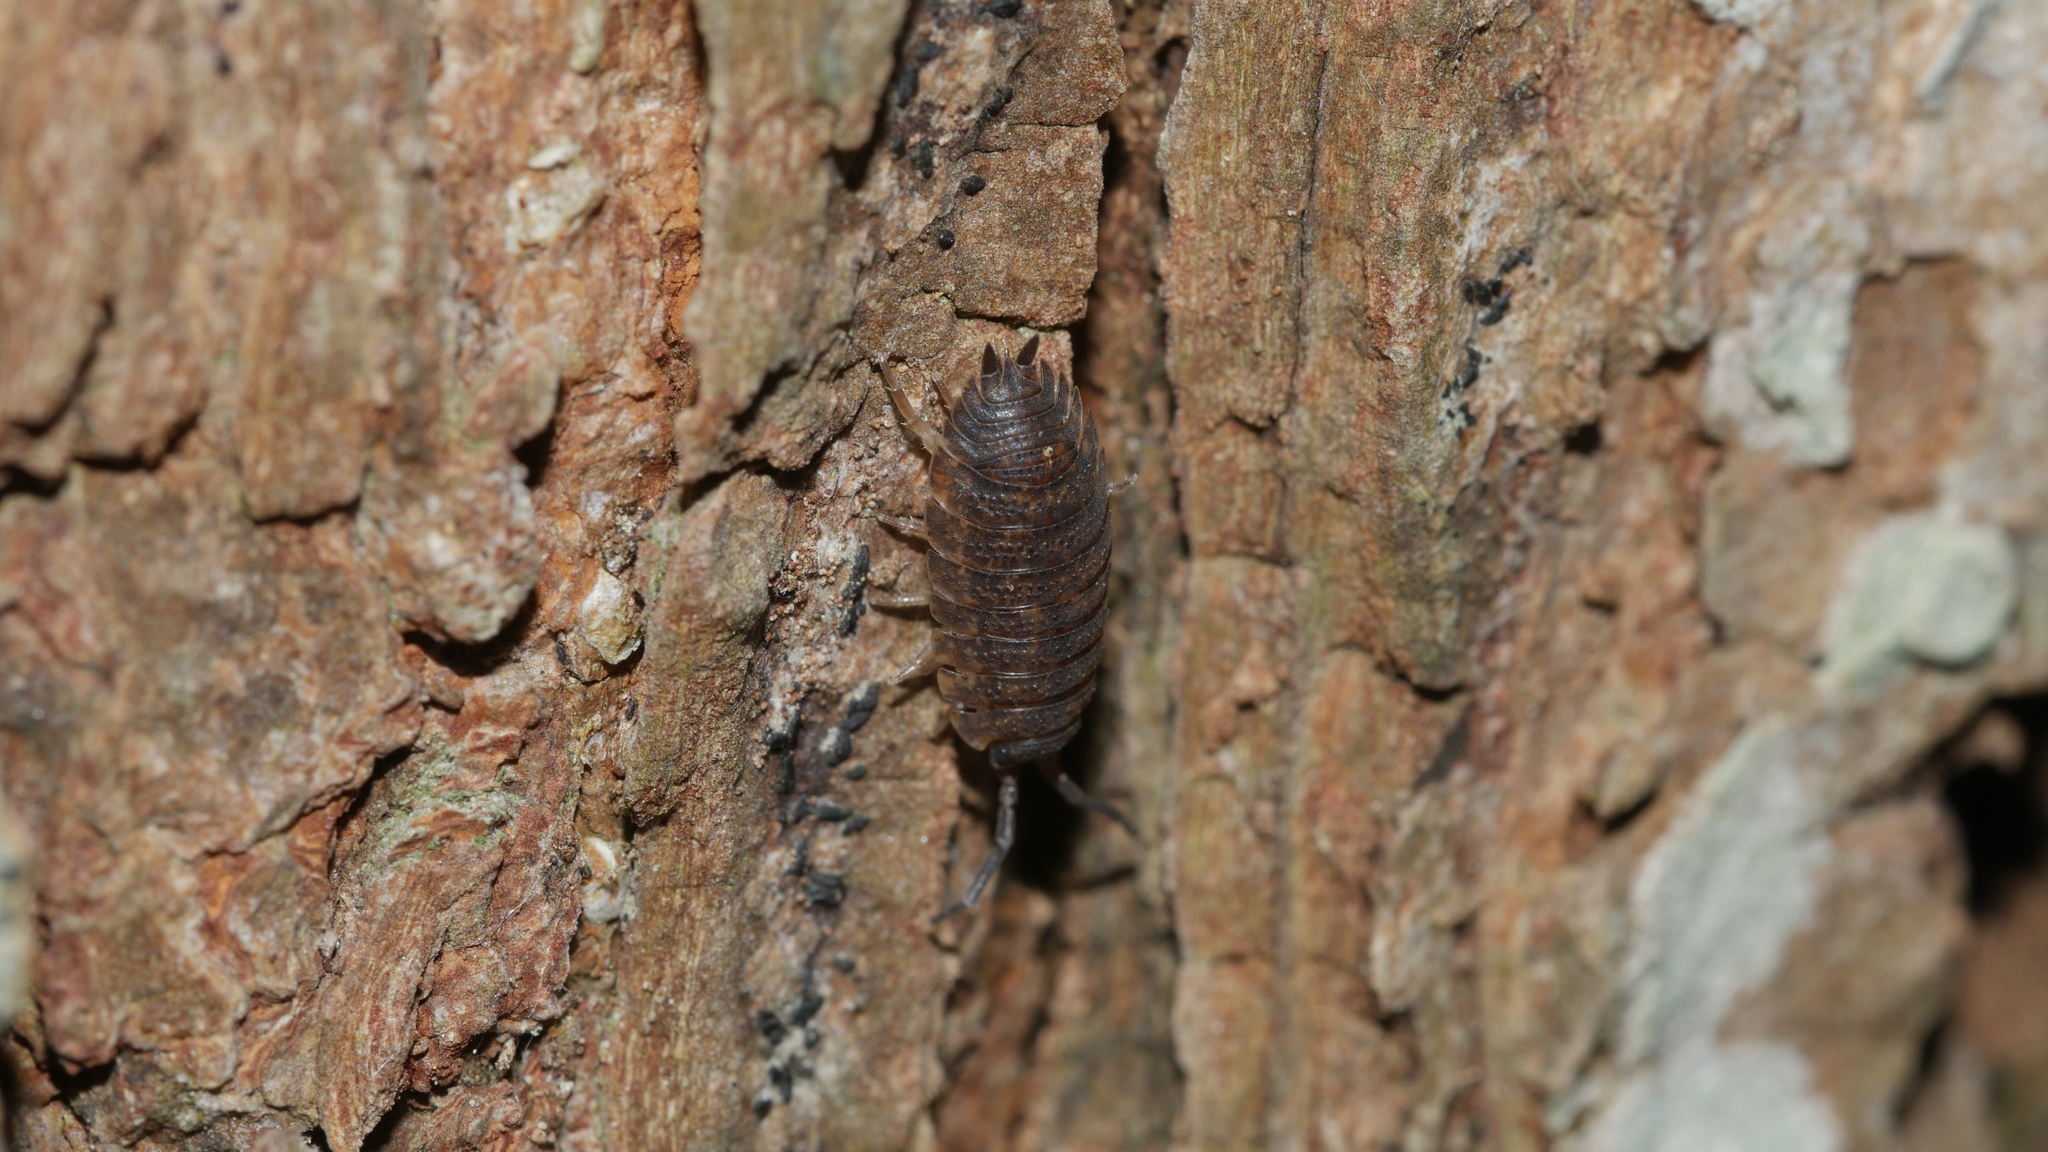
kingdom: Animalia
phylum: Arthropoda
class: Malacostraca
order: Isopoda
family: Porcellionidae
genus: Porcellio
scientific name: Porcellio scaber
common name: Common rough woodlouse
